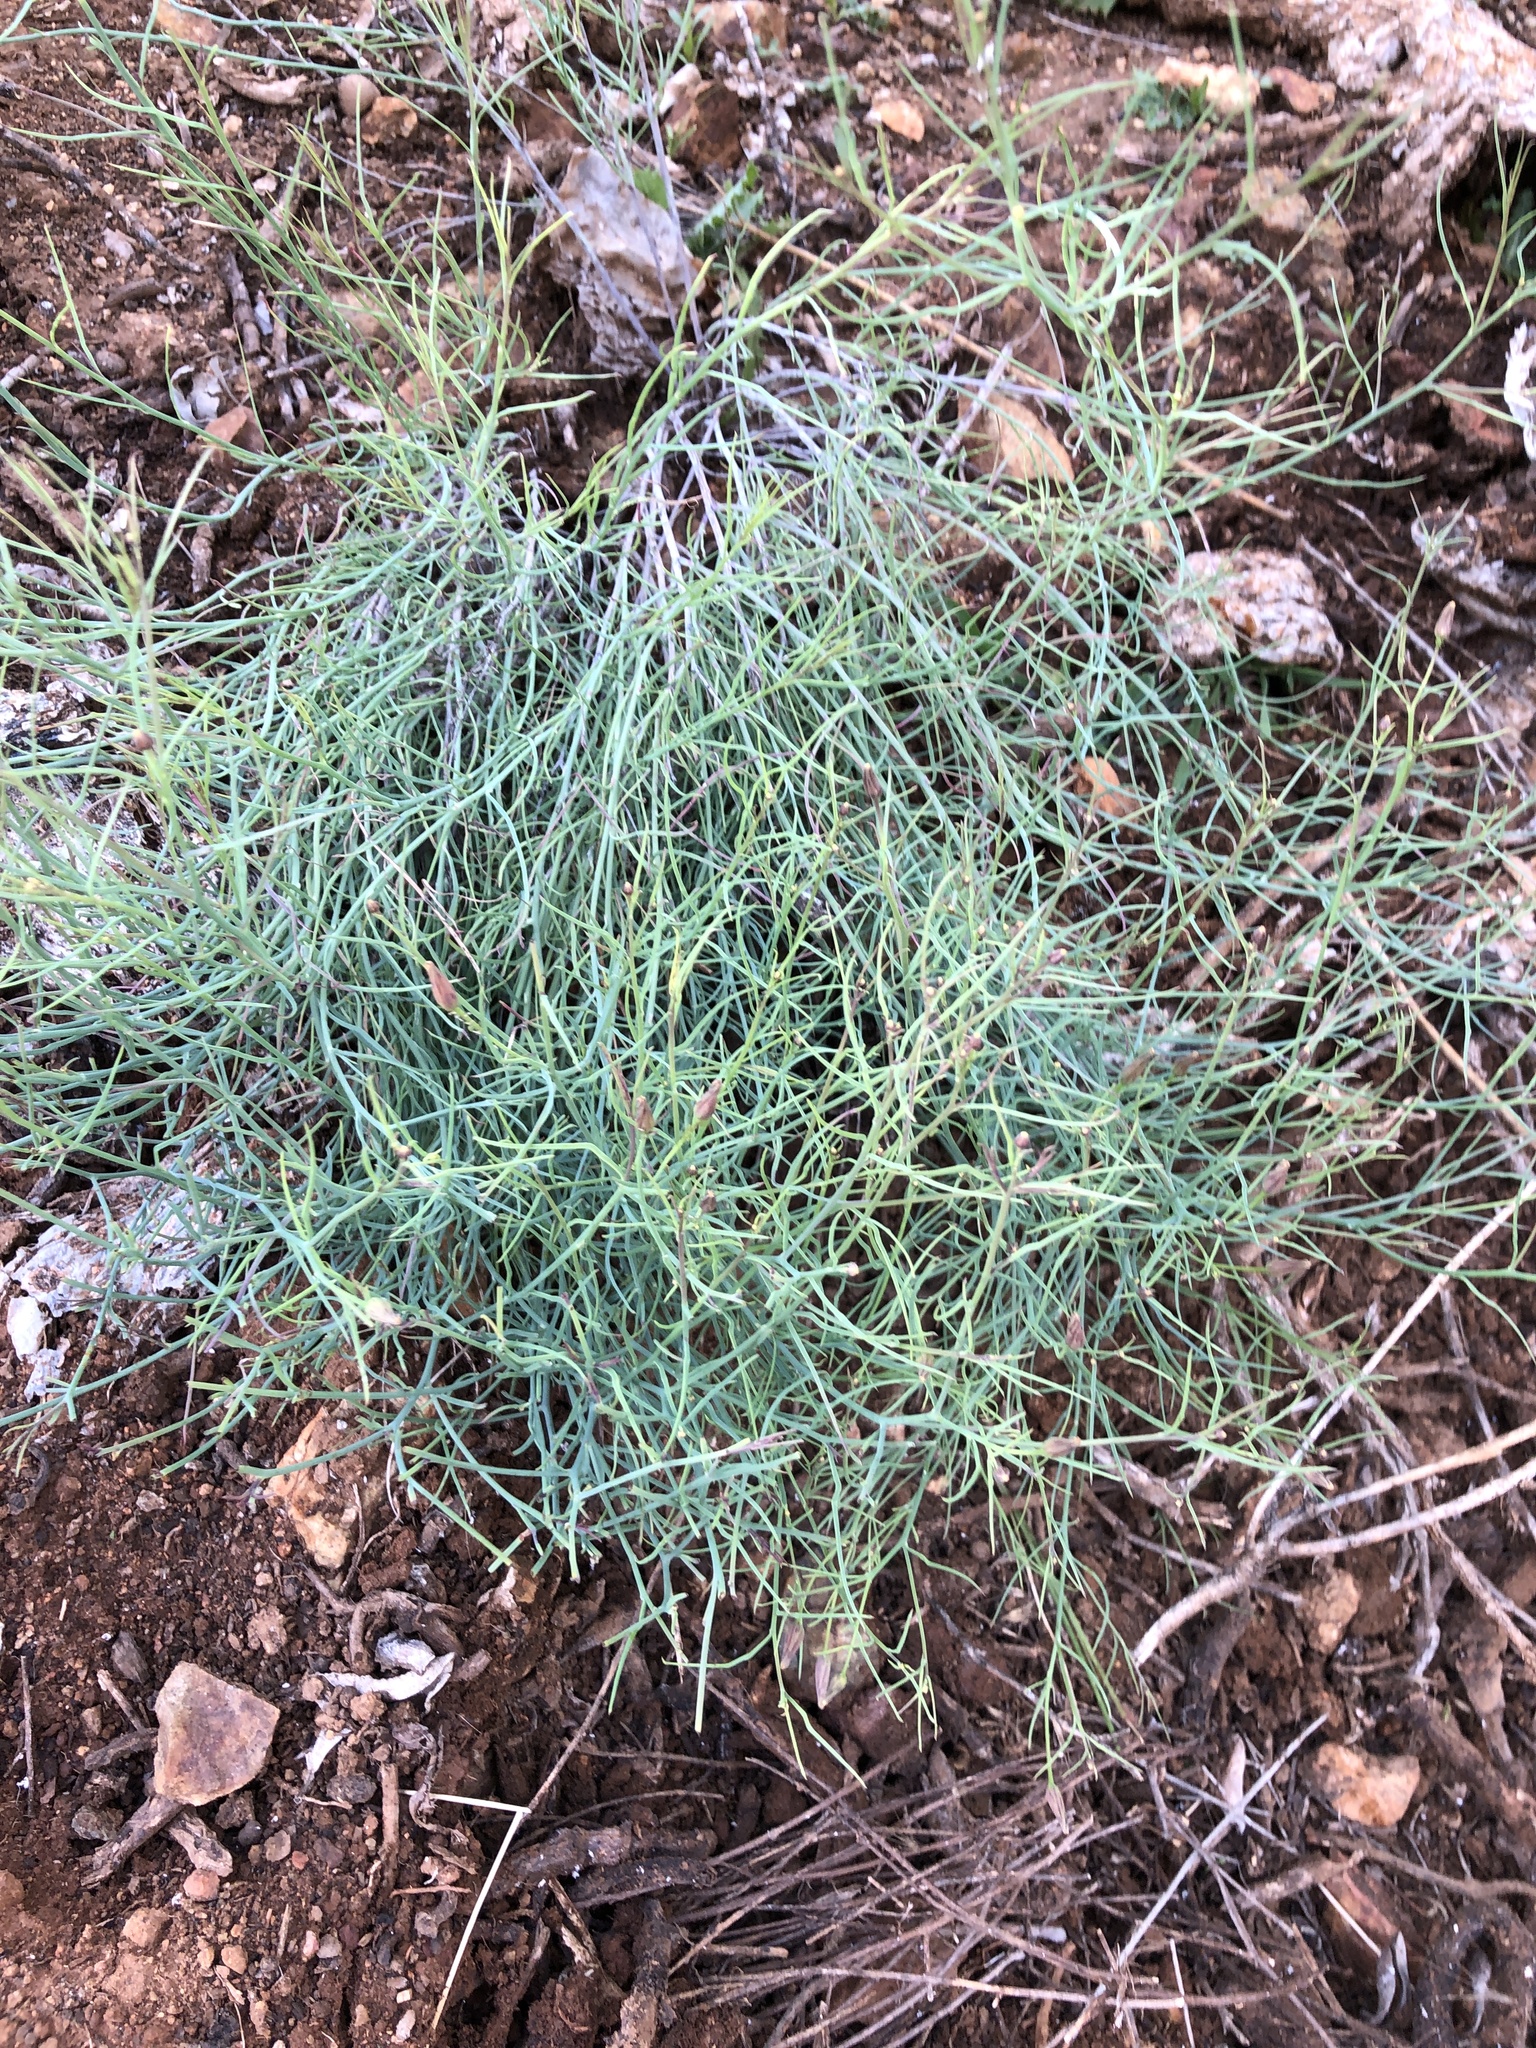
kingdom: Plantae
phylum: Tracheophyta
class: Magnoliopsida
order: Asterales
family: Asteraceae
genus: Porophyllum
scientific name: Porophyllum gracile
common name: Odora
